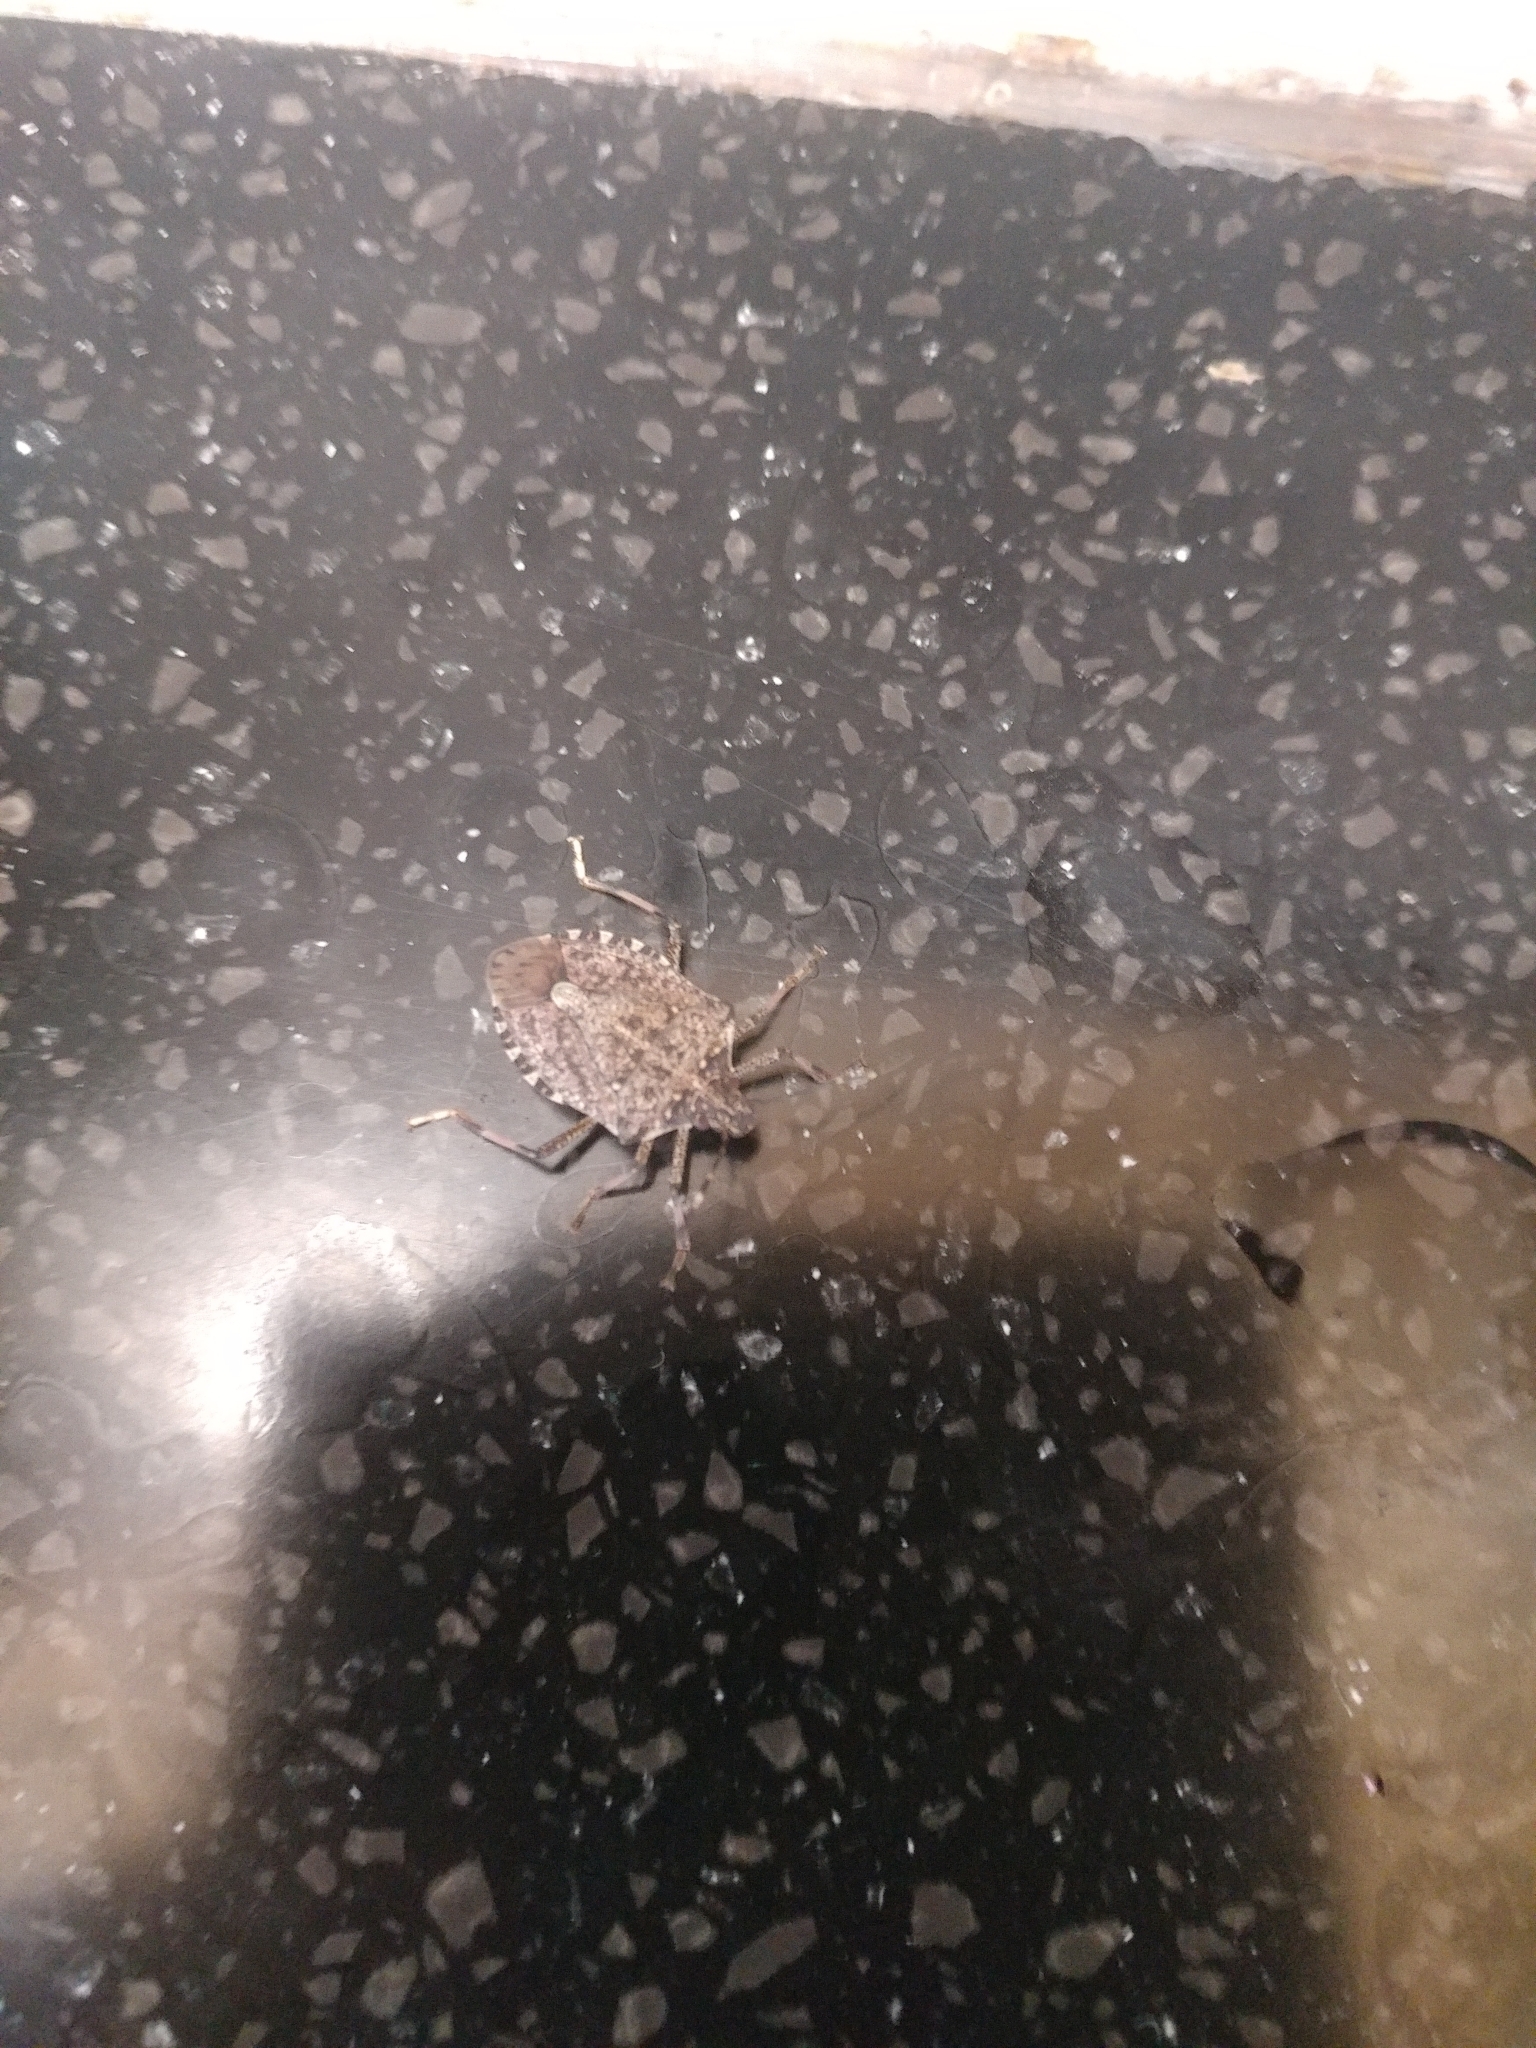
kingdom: Animalia
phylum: Arthropoda
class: Insecta
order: Hemiptera
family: Pentatomidae
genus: Halyomorpha
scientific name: Halyomorpha halys
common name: Brown marmorated stink bug
